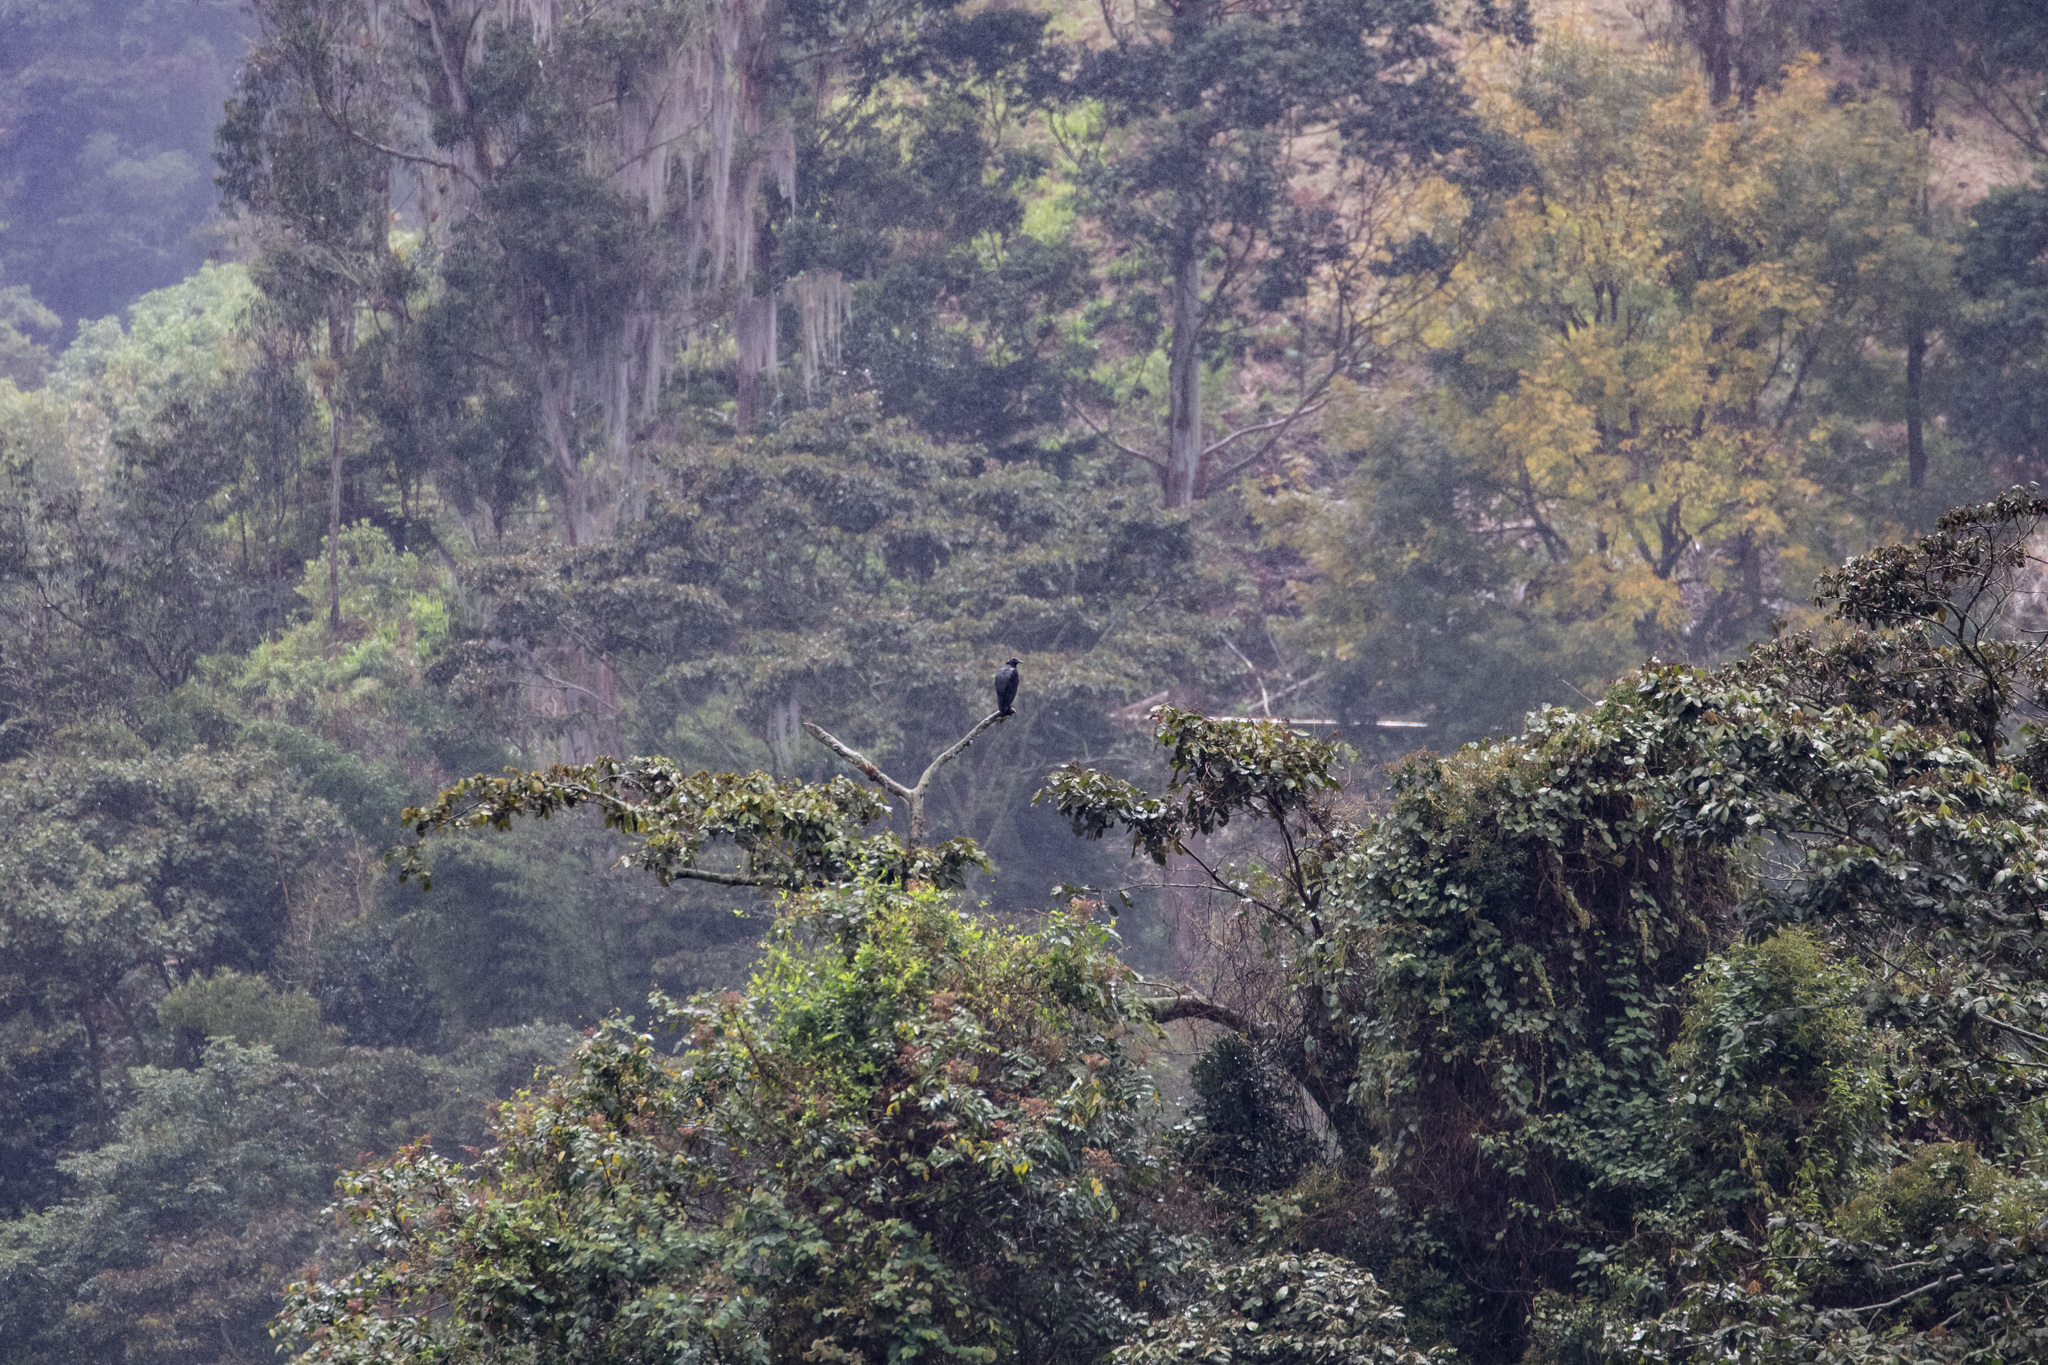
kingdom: Animalia
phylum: Chordata
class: Aves
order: Accipitriformes
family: Cathartidae
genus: Coragyps
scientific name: Coragyps atratus
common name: Black vulture
